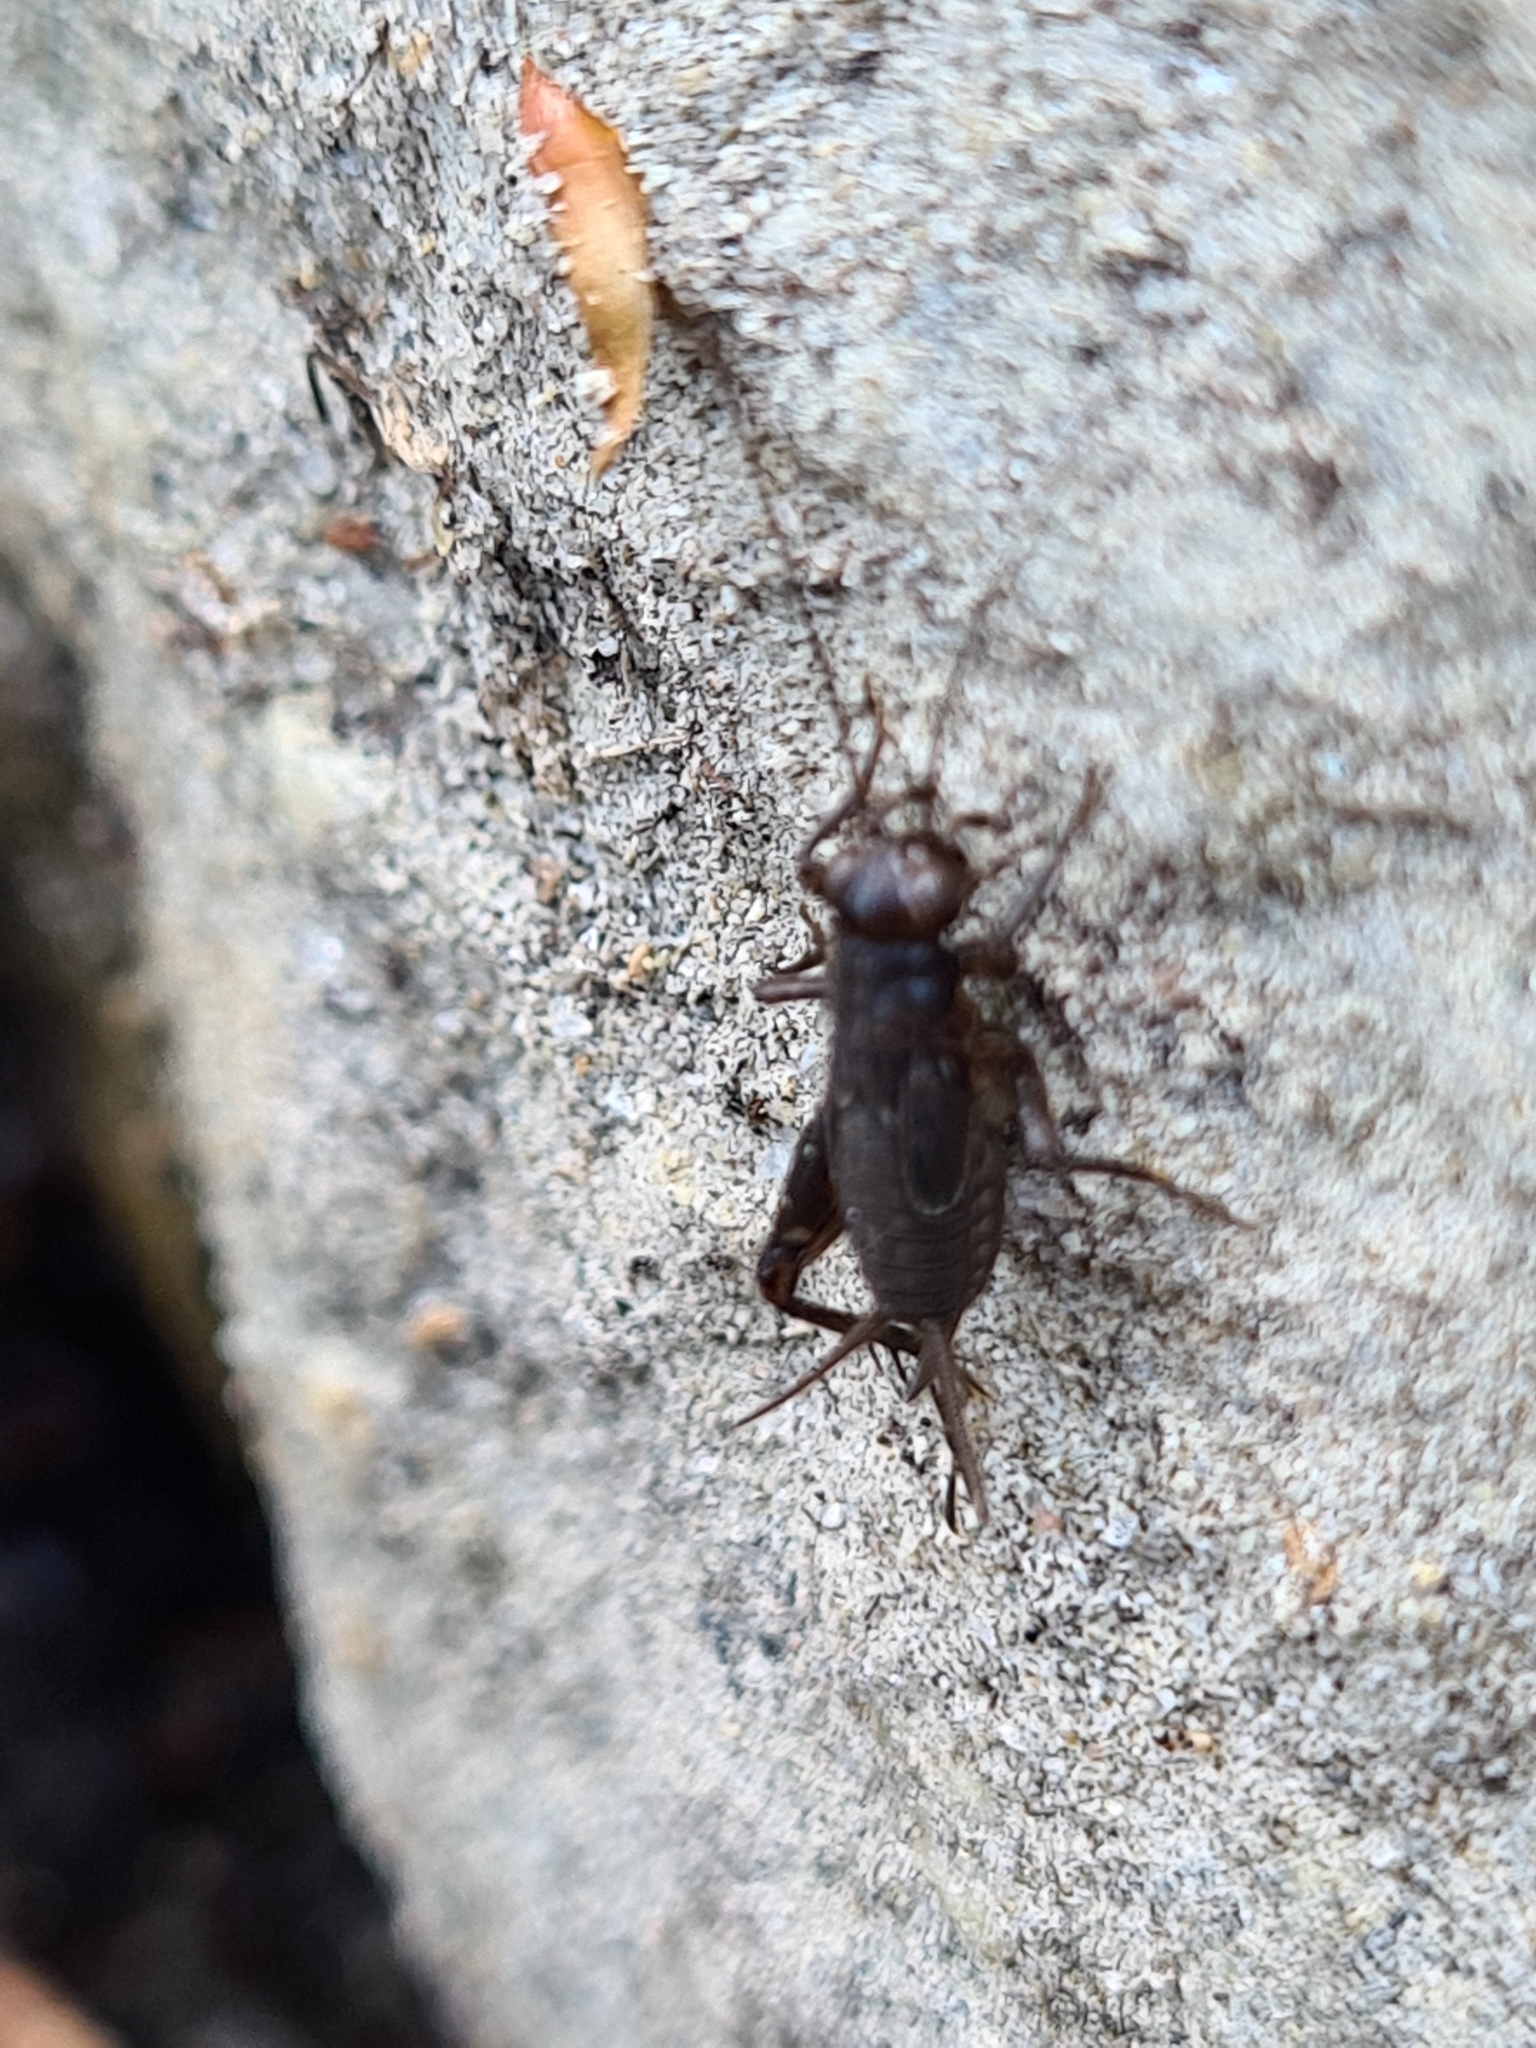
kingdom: Animalia
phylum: Arthropoda
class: Insecta
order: Orthoptera
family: Trigonidiidae
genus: Pteronemobius
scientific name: Pteronemobius heydenii
